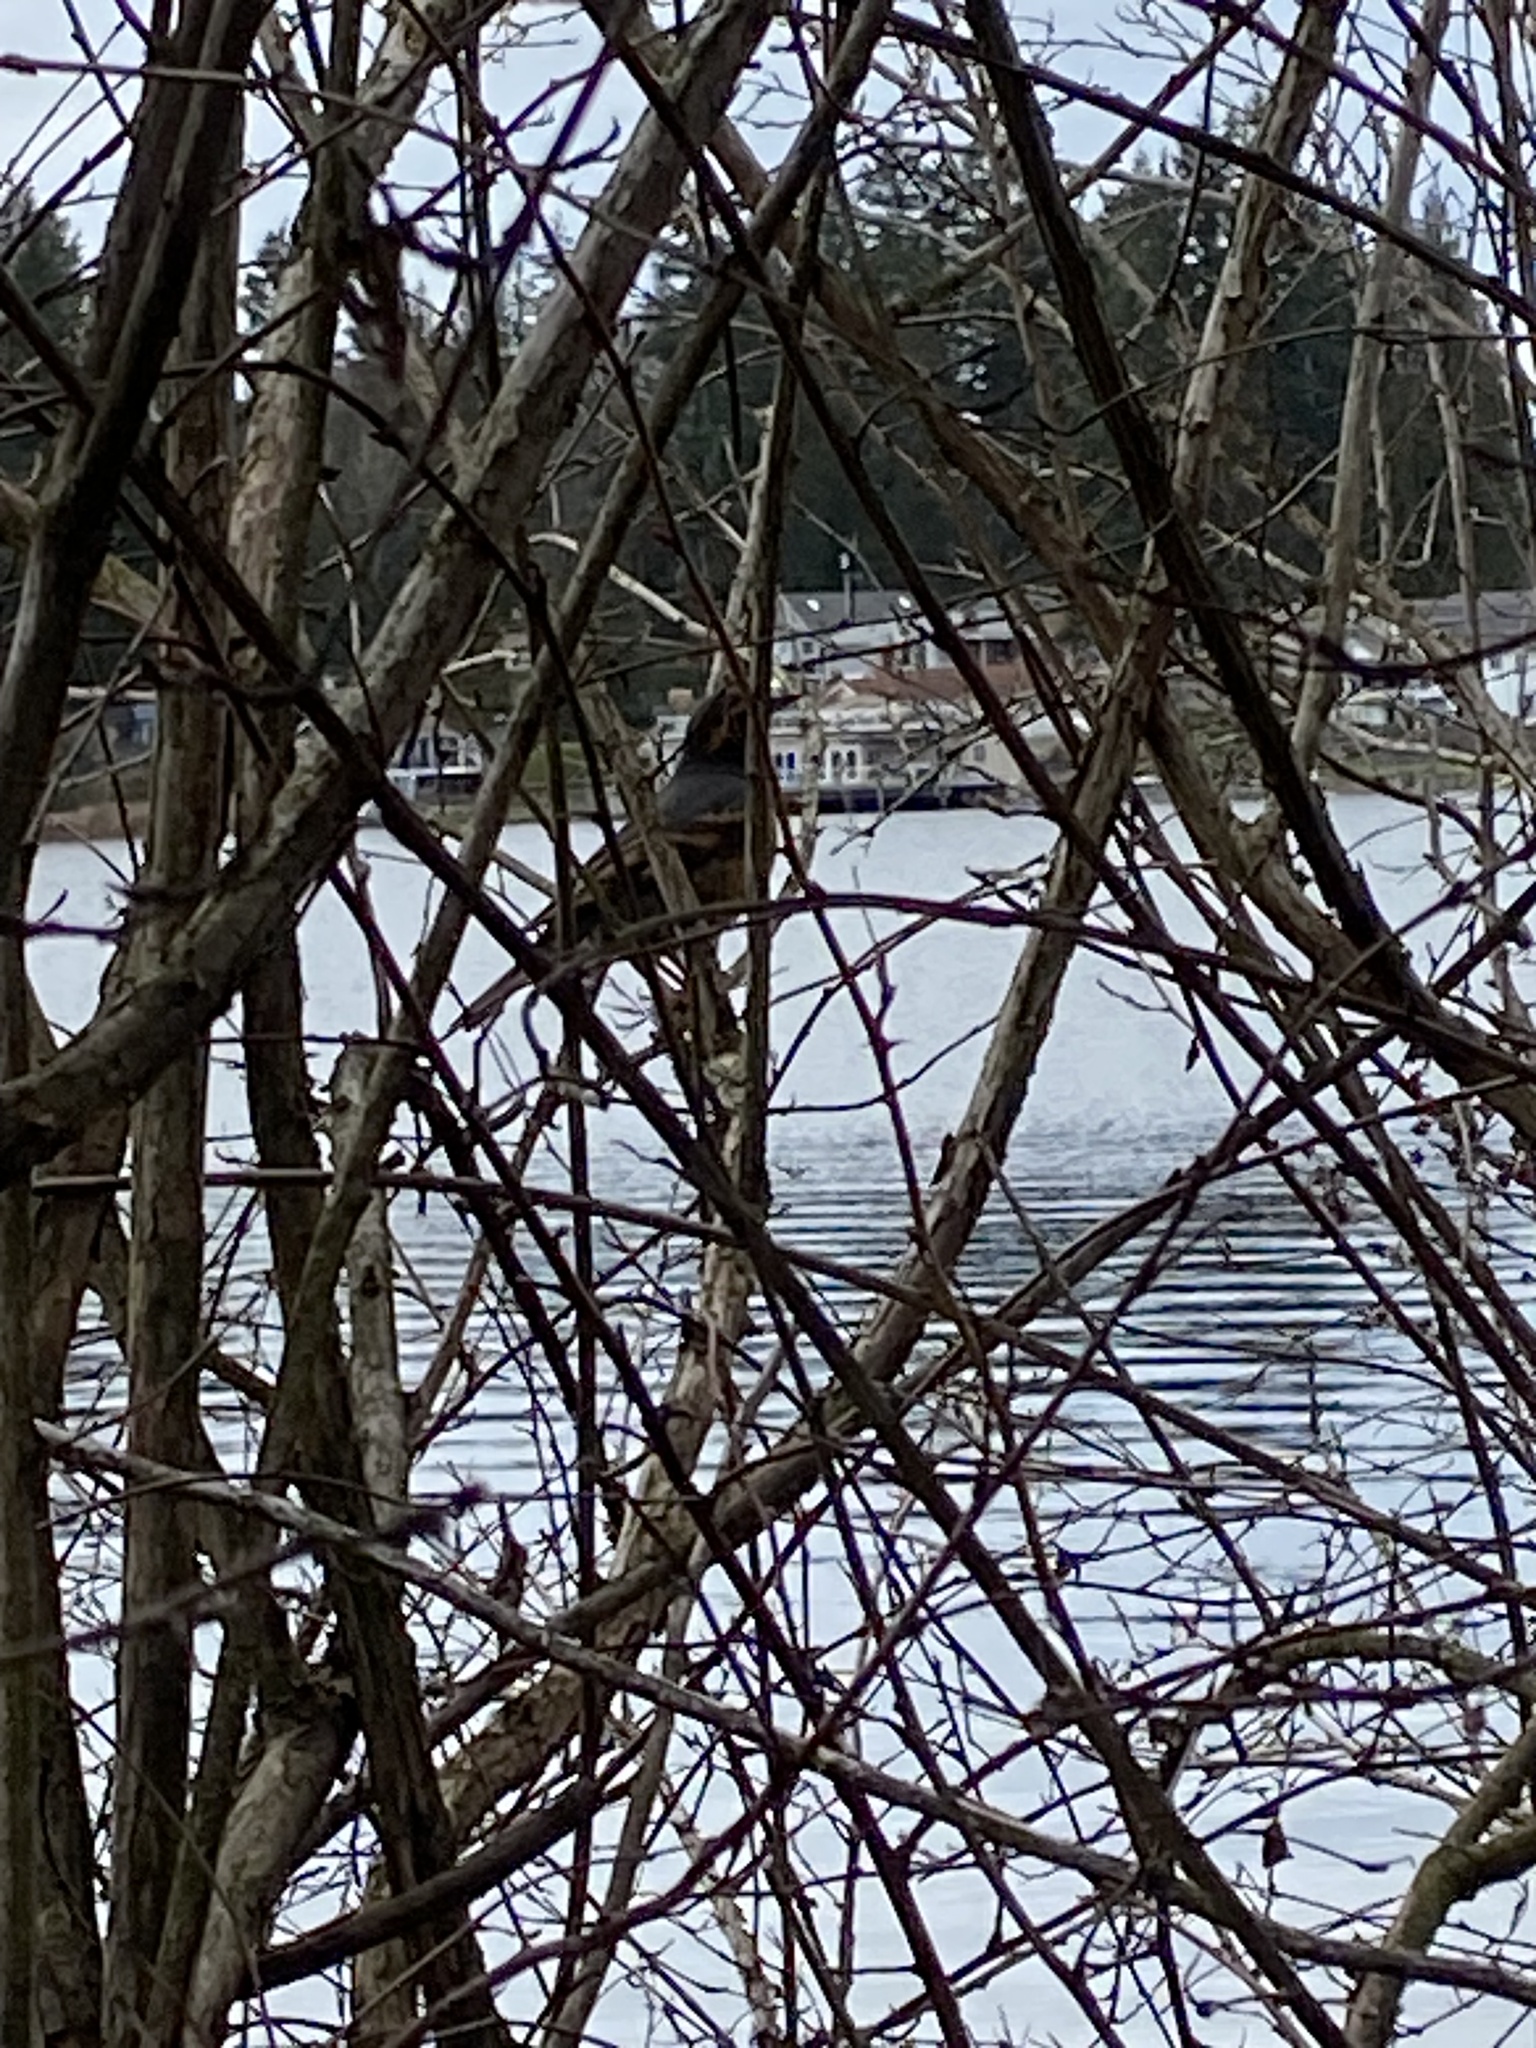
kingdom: Animalia
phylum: Chordata
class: Aves
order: Passeriformes
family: Turdidae
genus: Ixoreus
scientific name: Ixoreus naevius
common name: Varied thrush
